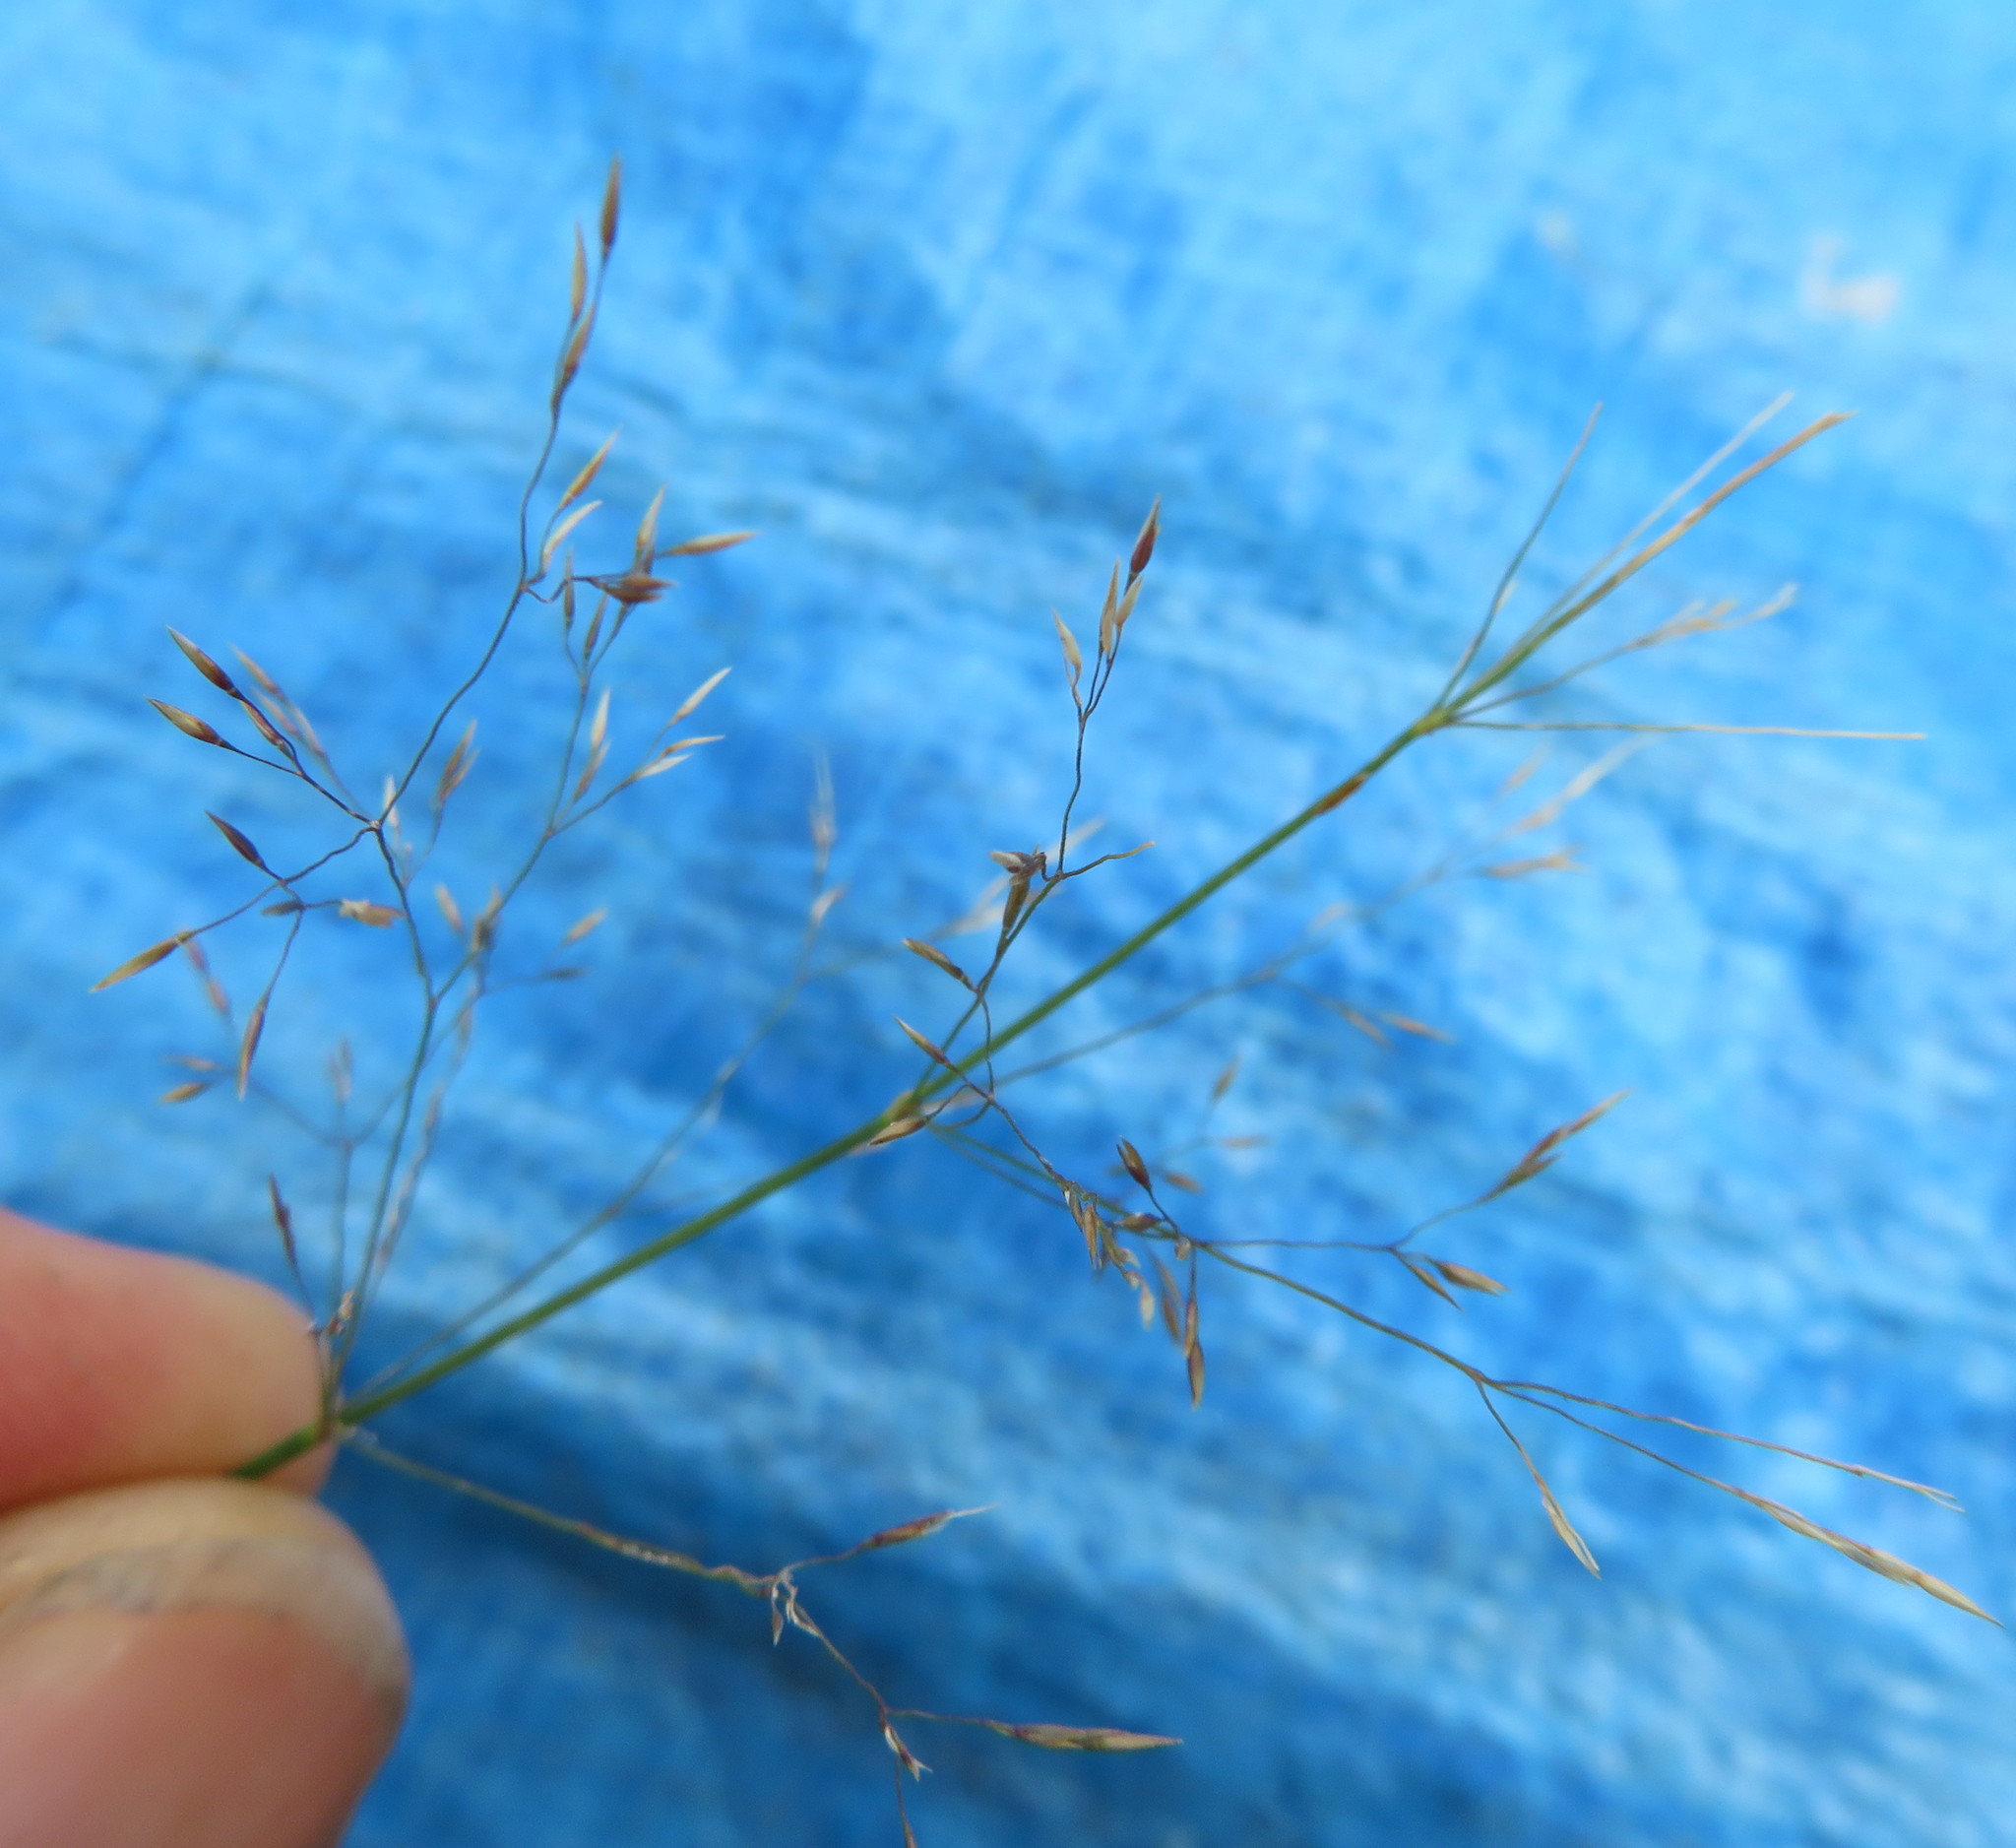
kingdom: Plantae
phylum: Tracheophyta
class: Liliopsida
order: Poales
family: Poaceae
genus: Agrostis
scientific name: Agrostis capillaris
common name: Colonial bentgrass
